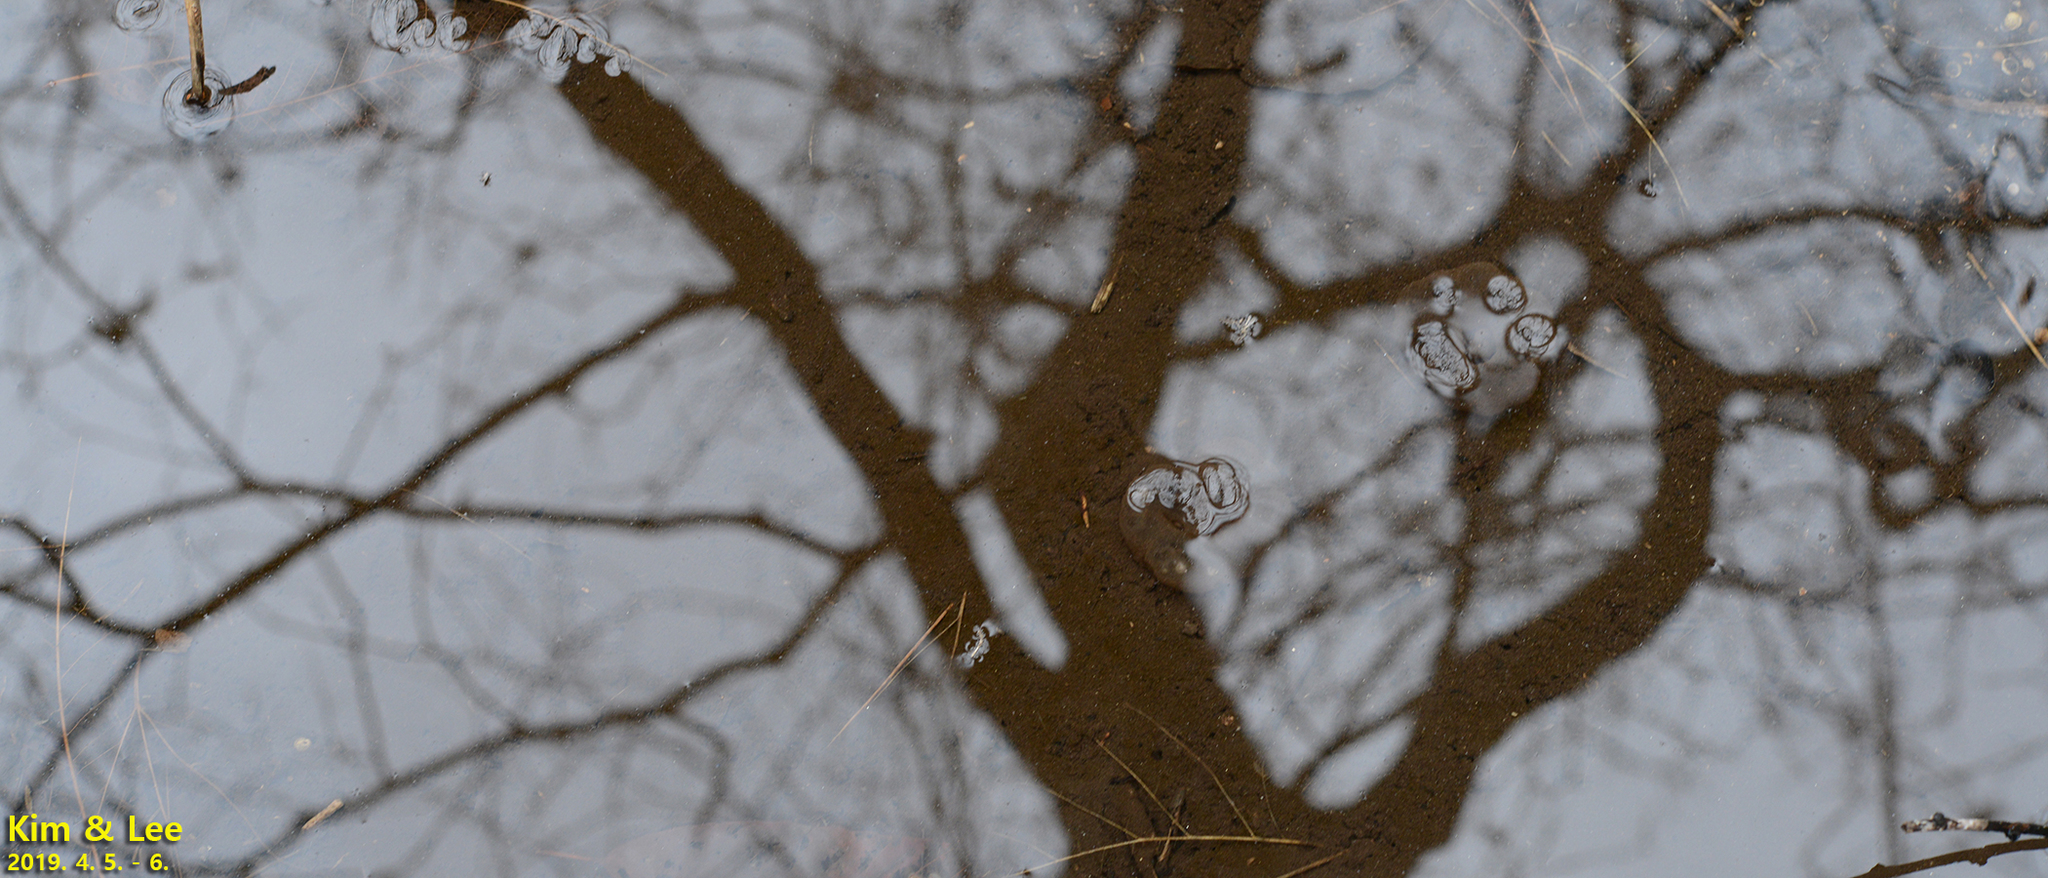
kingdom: Animalia
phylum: Chordata
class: Amphibia
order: Caudata
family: Hynobiidae
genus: Hynobius
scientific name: Hynobius leechii
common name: Gensan salamander
